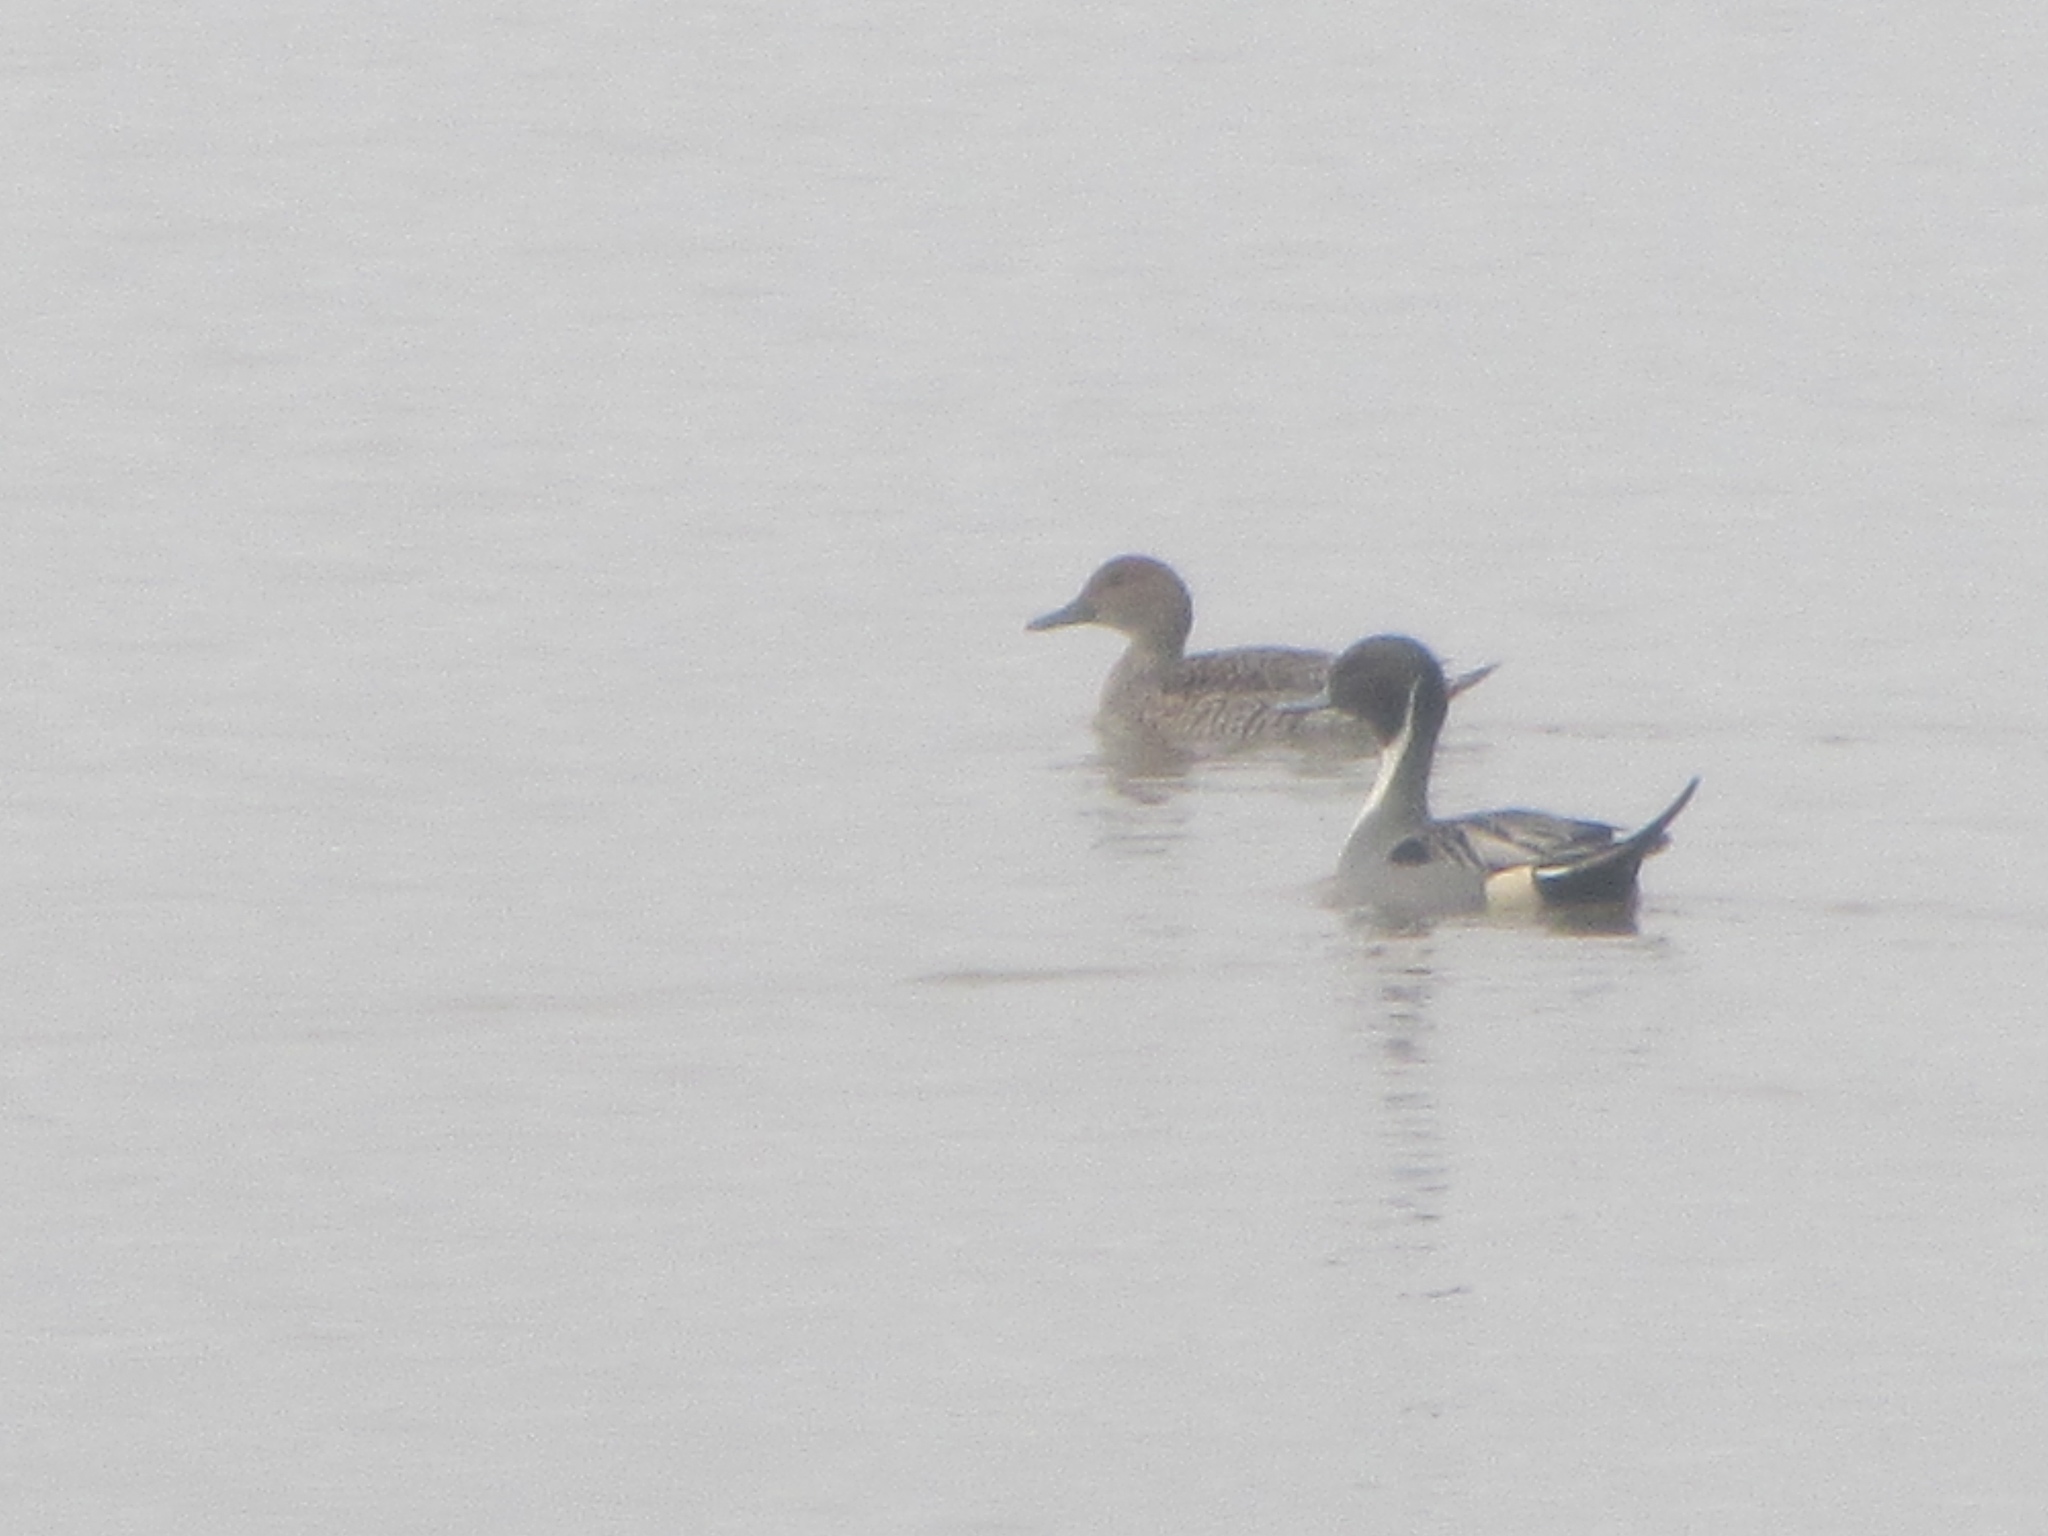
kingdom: Animalia
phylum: Chordata
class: Aves
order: Anseriformes
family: Anatidae
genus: Anas
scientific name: Anas acuta
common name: Northern pintail
